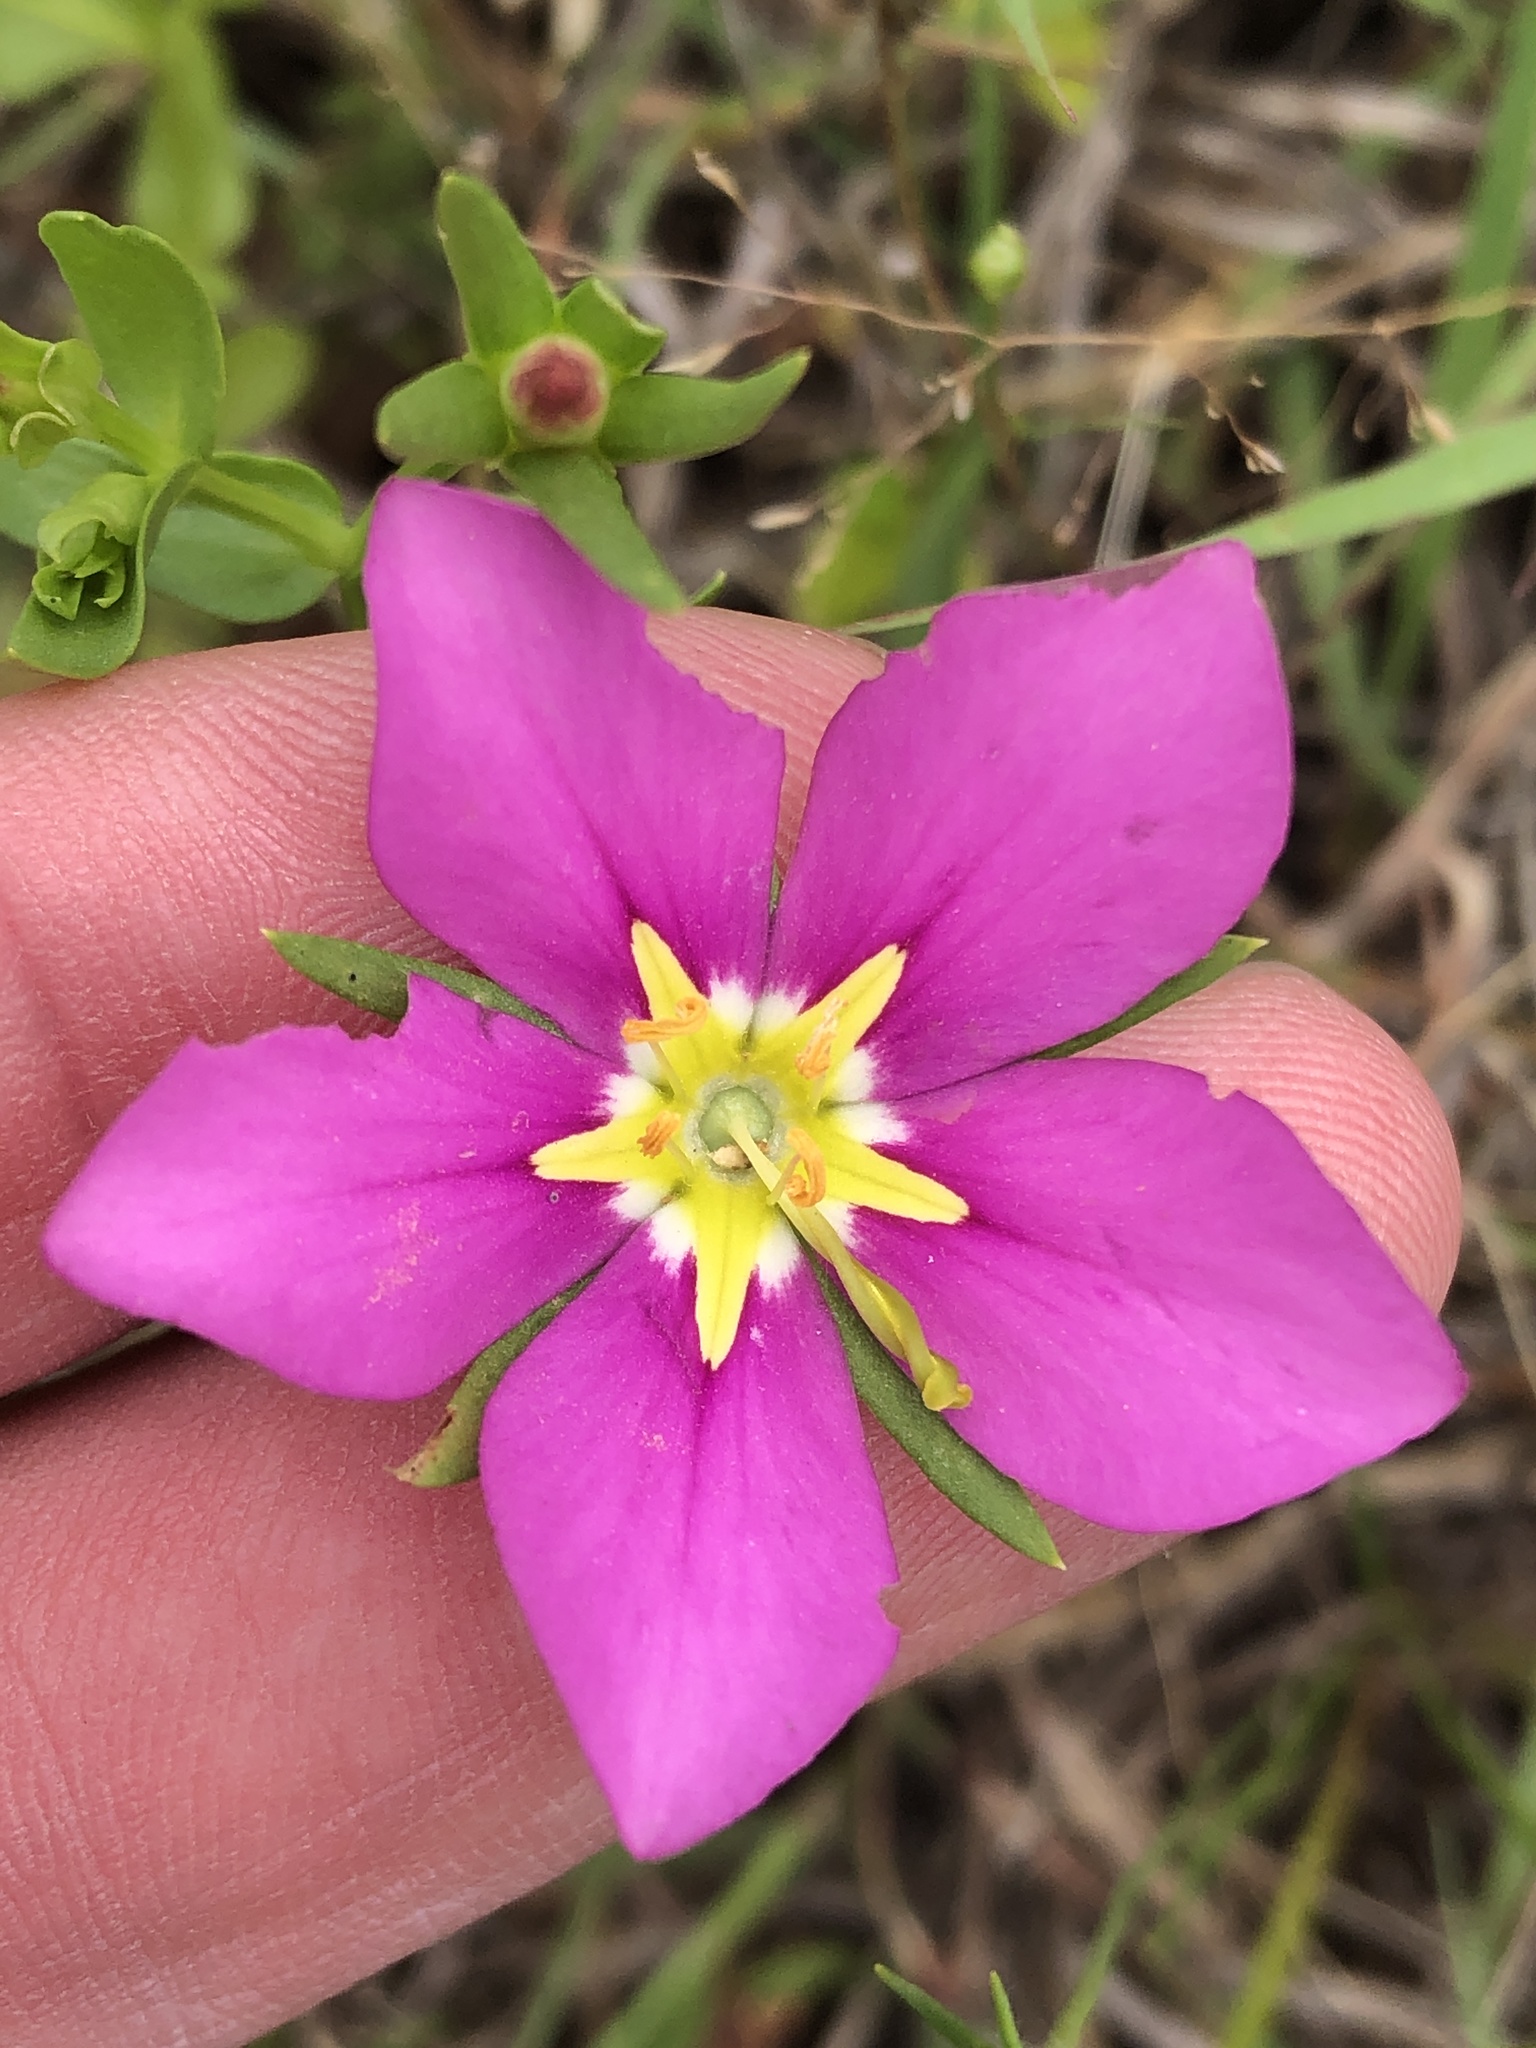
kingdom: Plantae
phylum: Tracheophyta
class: Magnoliopsida
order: Gentianales
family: Gentianaceae
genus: Sabatia
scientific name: Sabatia campestris
